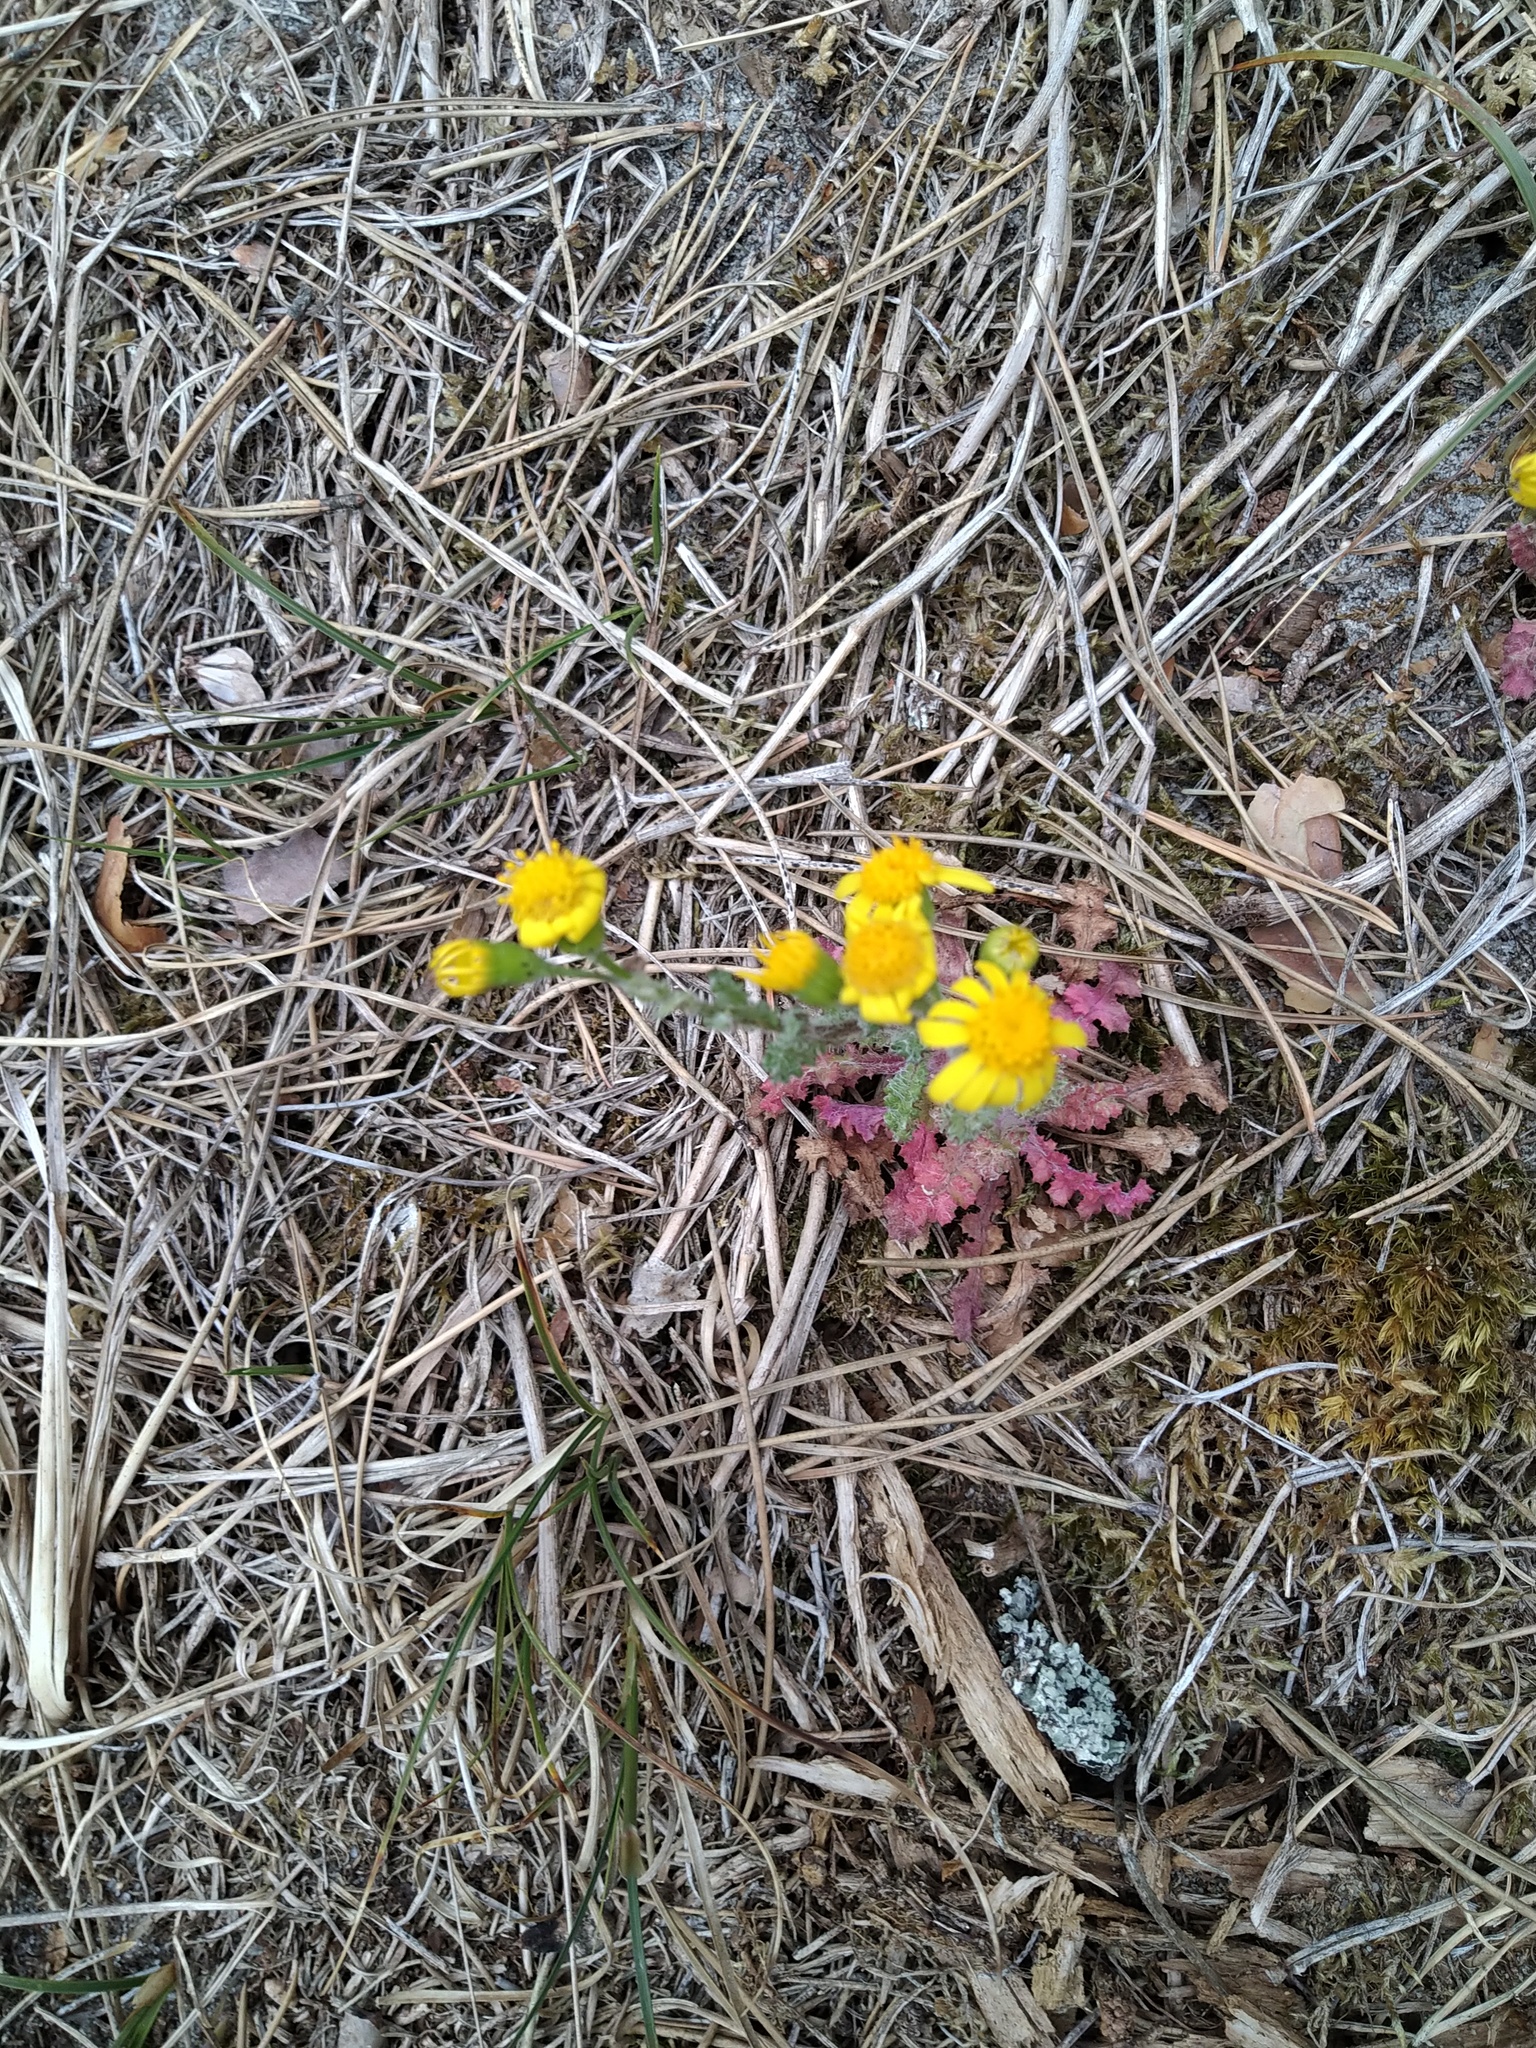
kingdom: Plantae
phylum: Tracheophyta
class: Magnoliopsida
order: Asterales
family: Asteraceae
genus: Senecio
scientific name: Senecio vernalis
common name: Eastern groundsel
